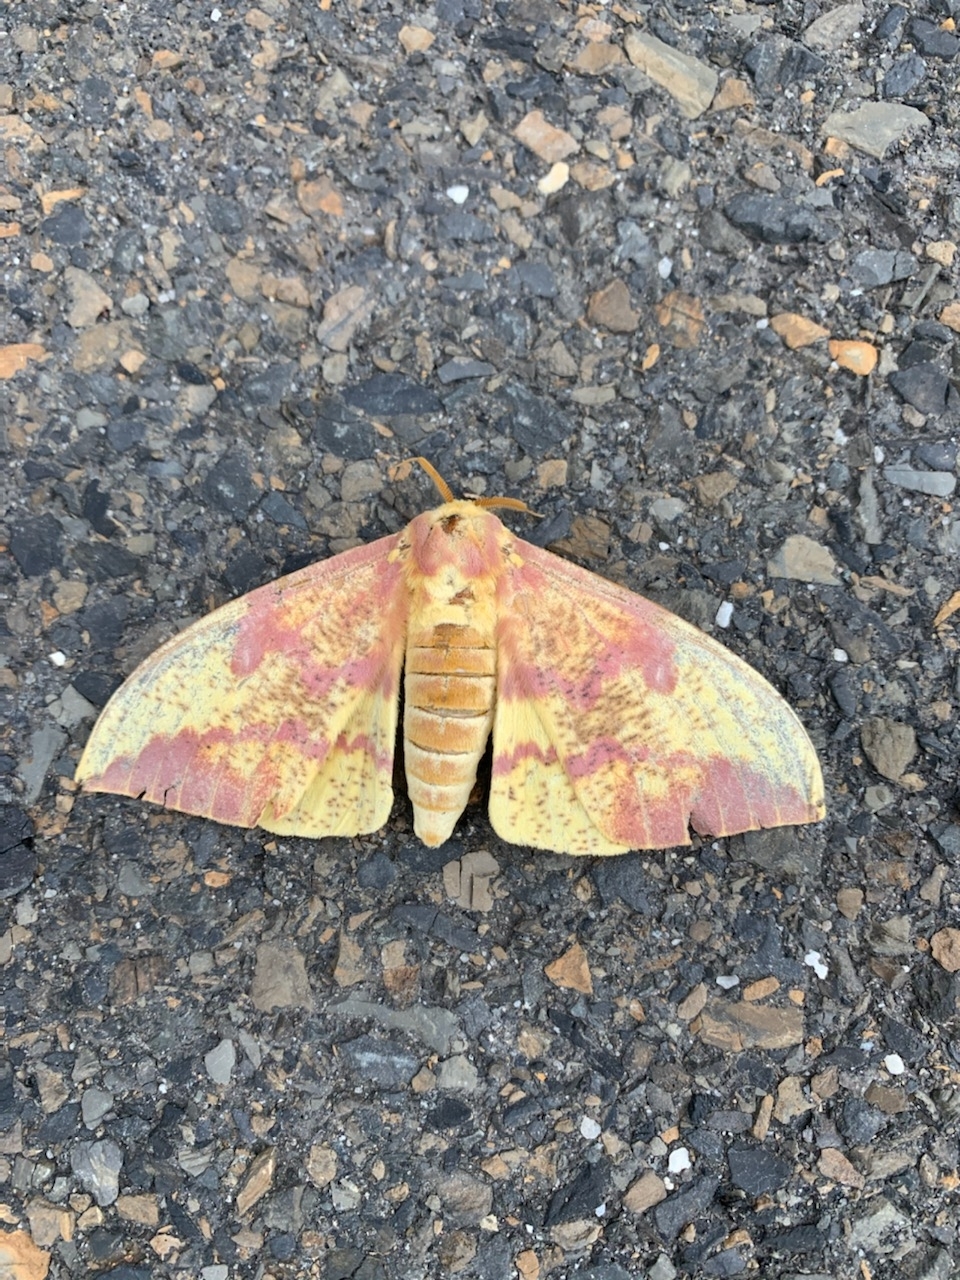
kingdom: Animalia
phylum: Arthropoda
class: Insecta
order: Lepidoptera
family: Saturniidae
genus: Eacles
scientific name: Eacles imperialis
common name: Imperial moth
